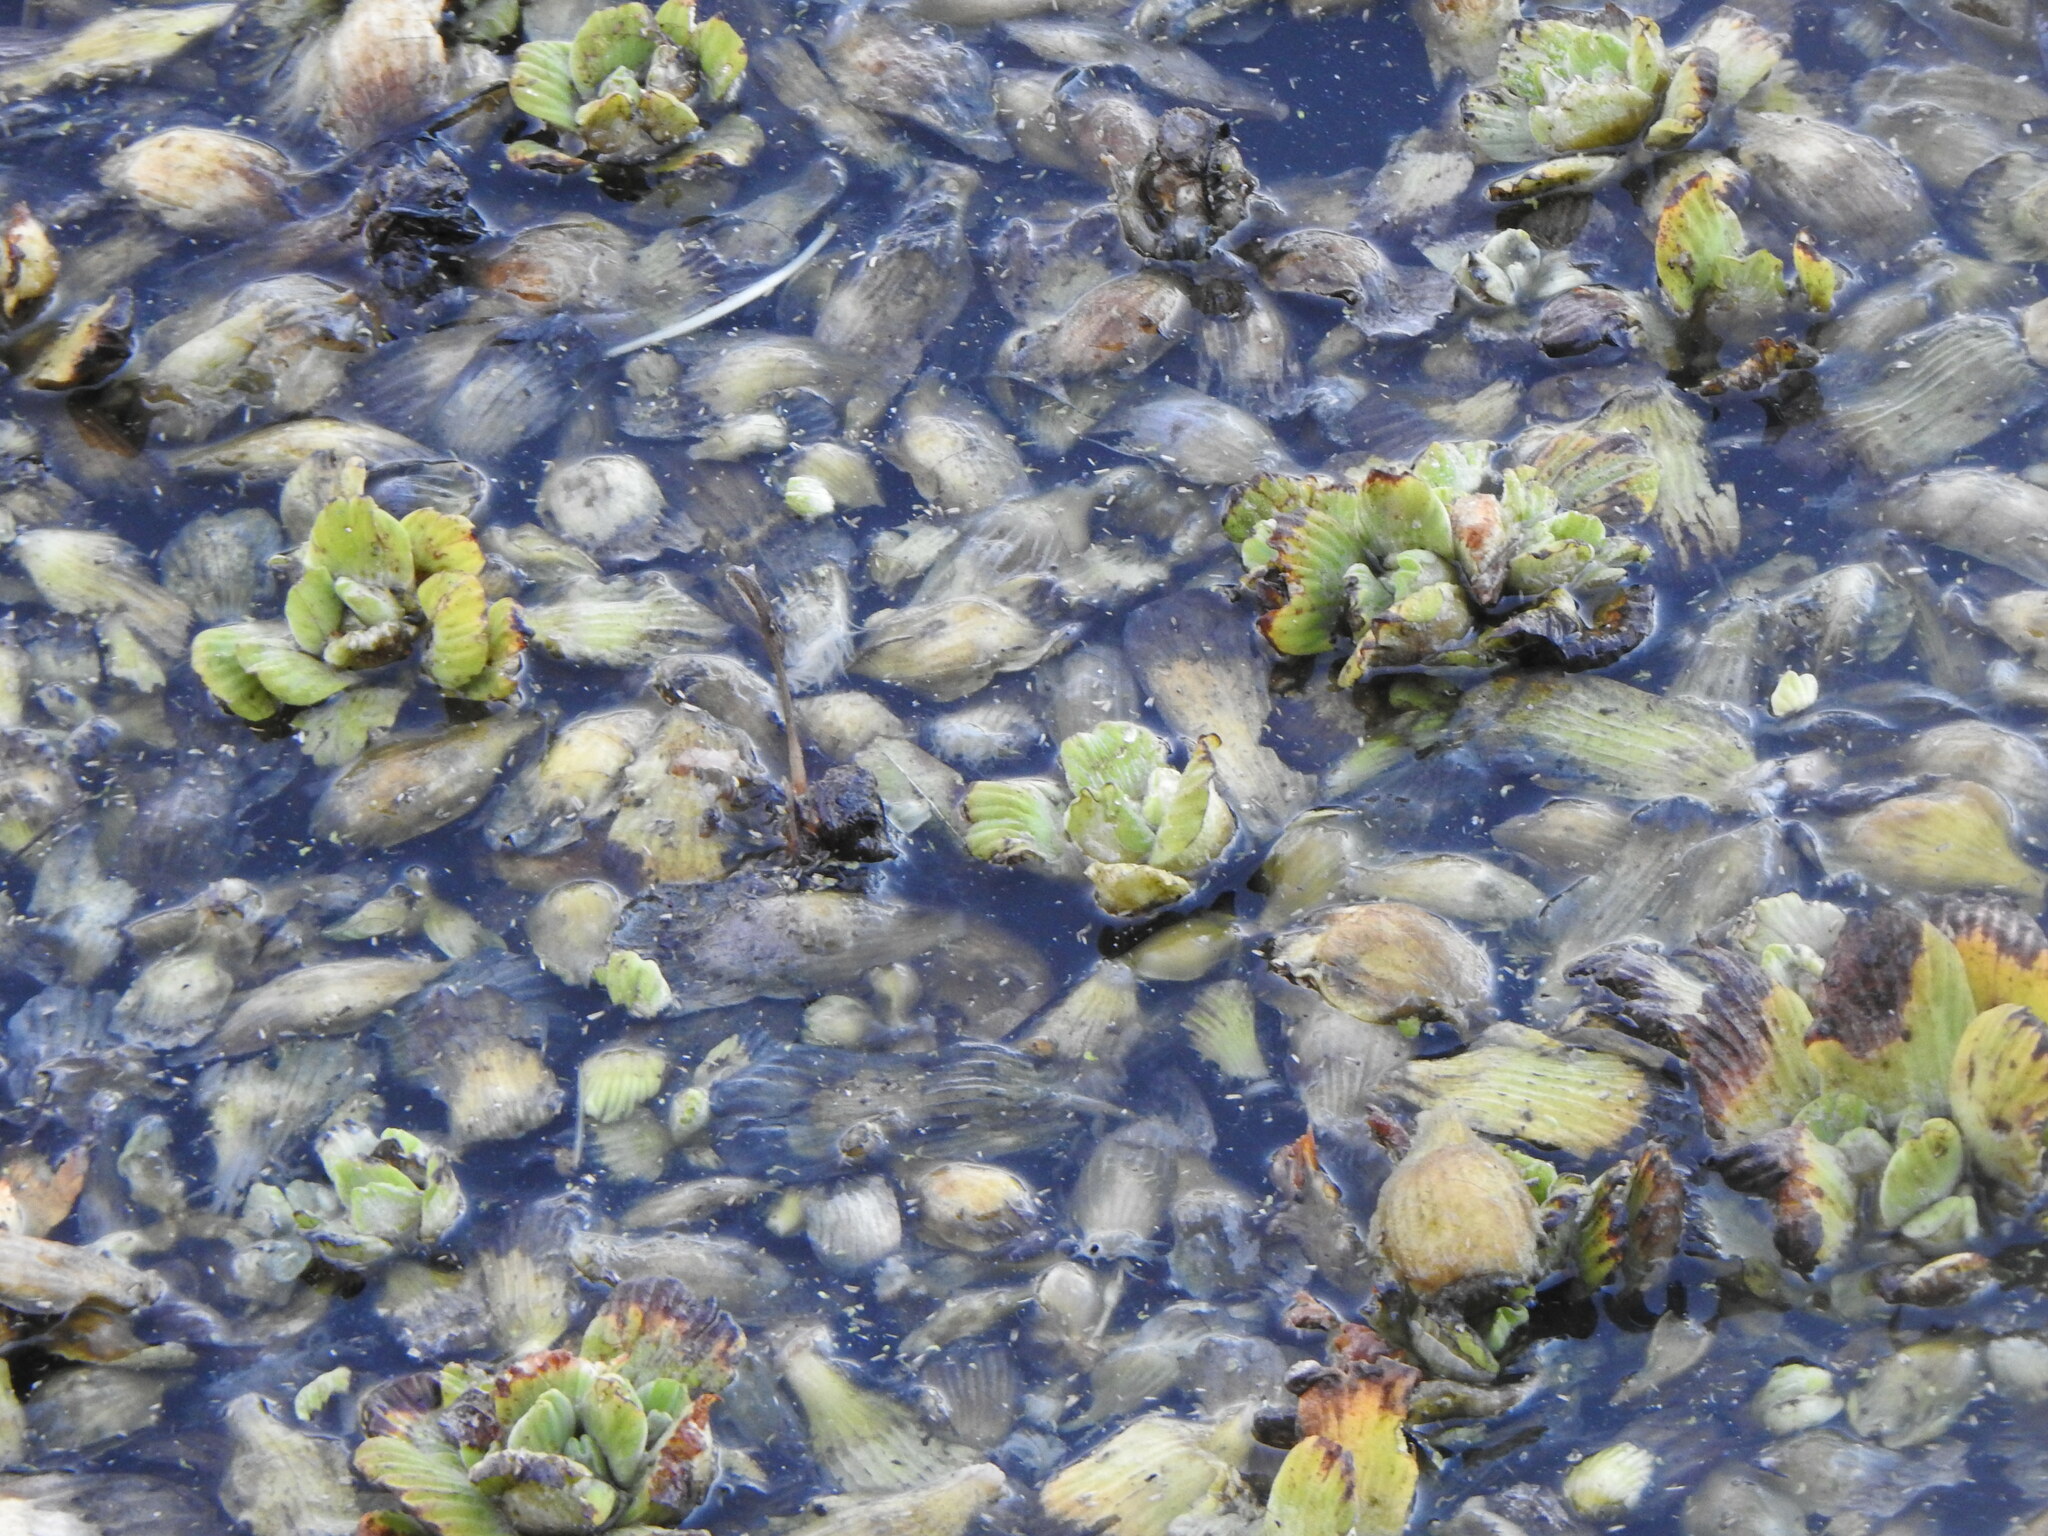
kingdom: Plantae
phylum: Tracheophyta
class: Liliopsida
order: Alismatales
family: Araceae
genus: Pistia
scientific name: Pistia stratiotes
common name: Water lettuce
